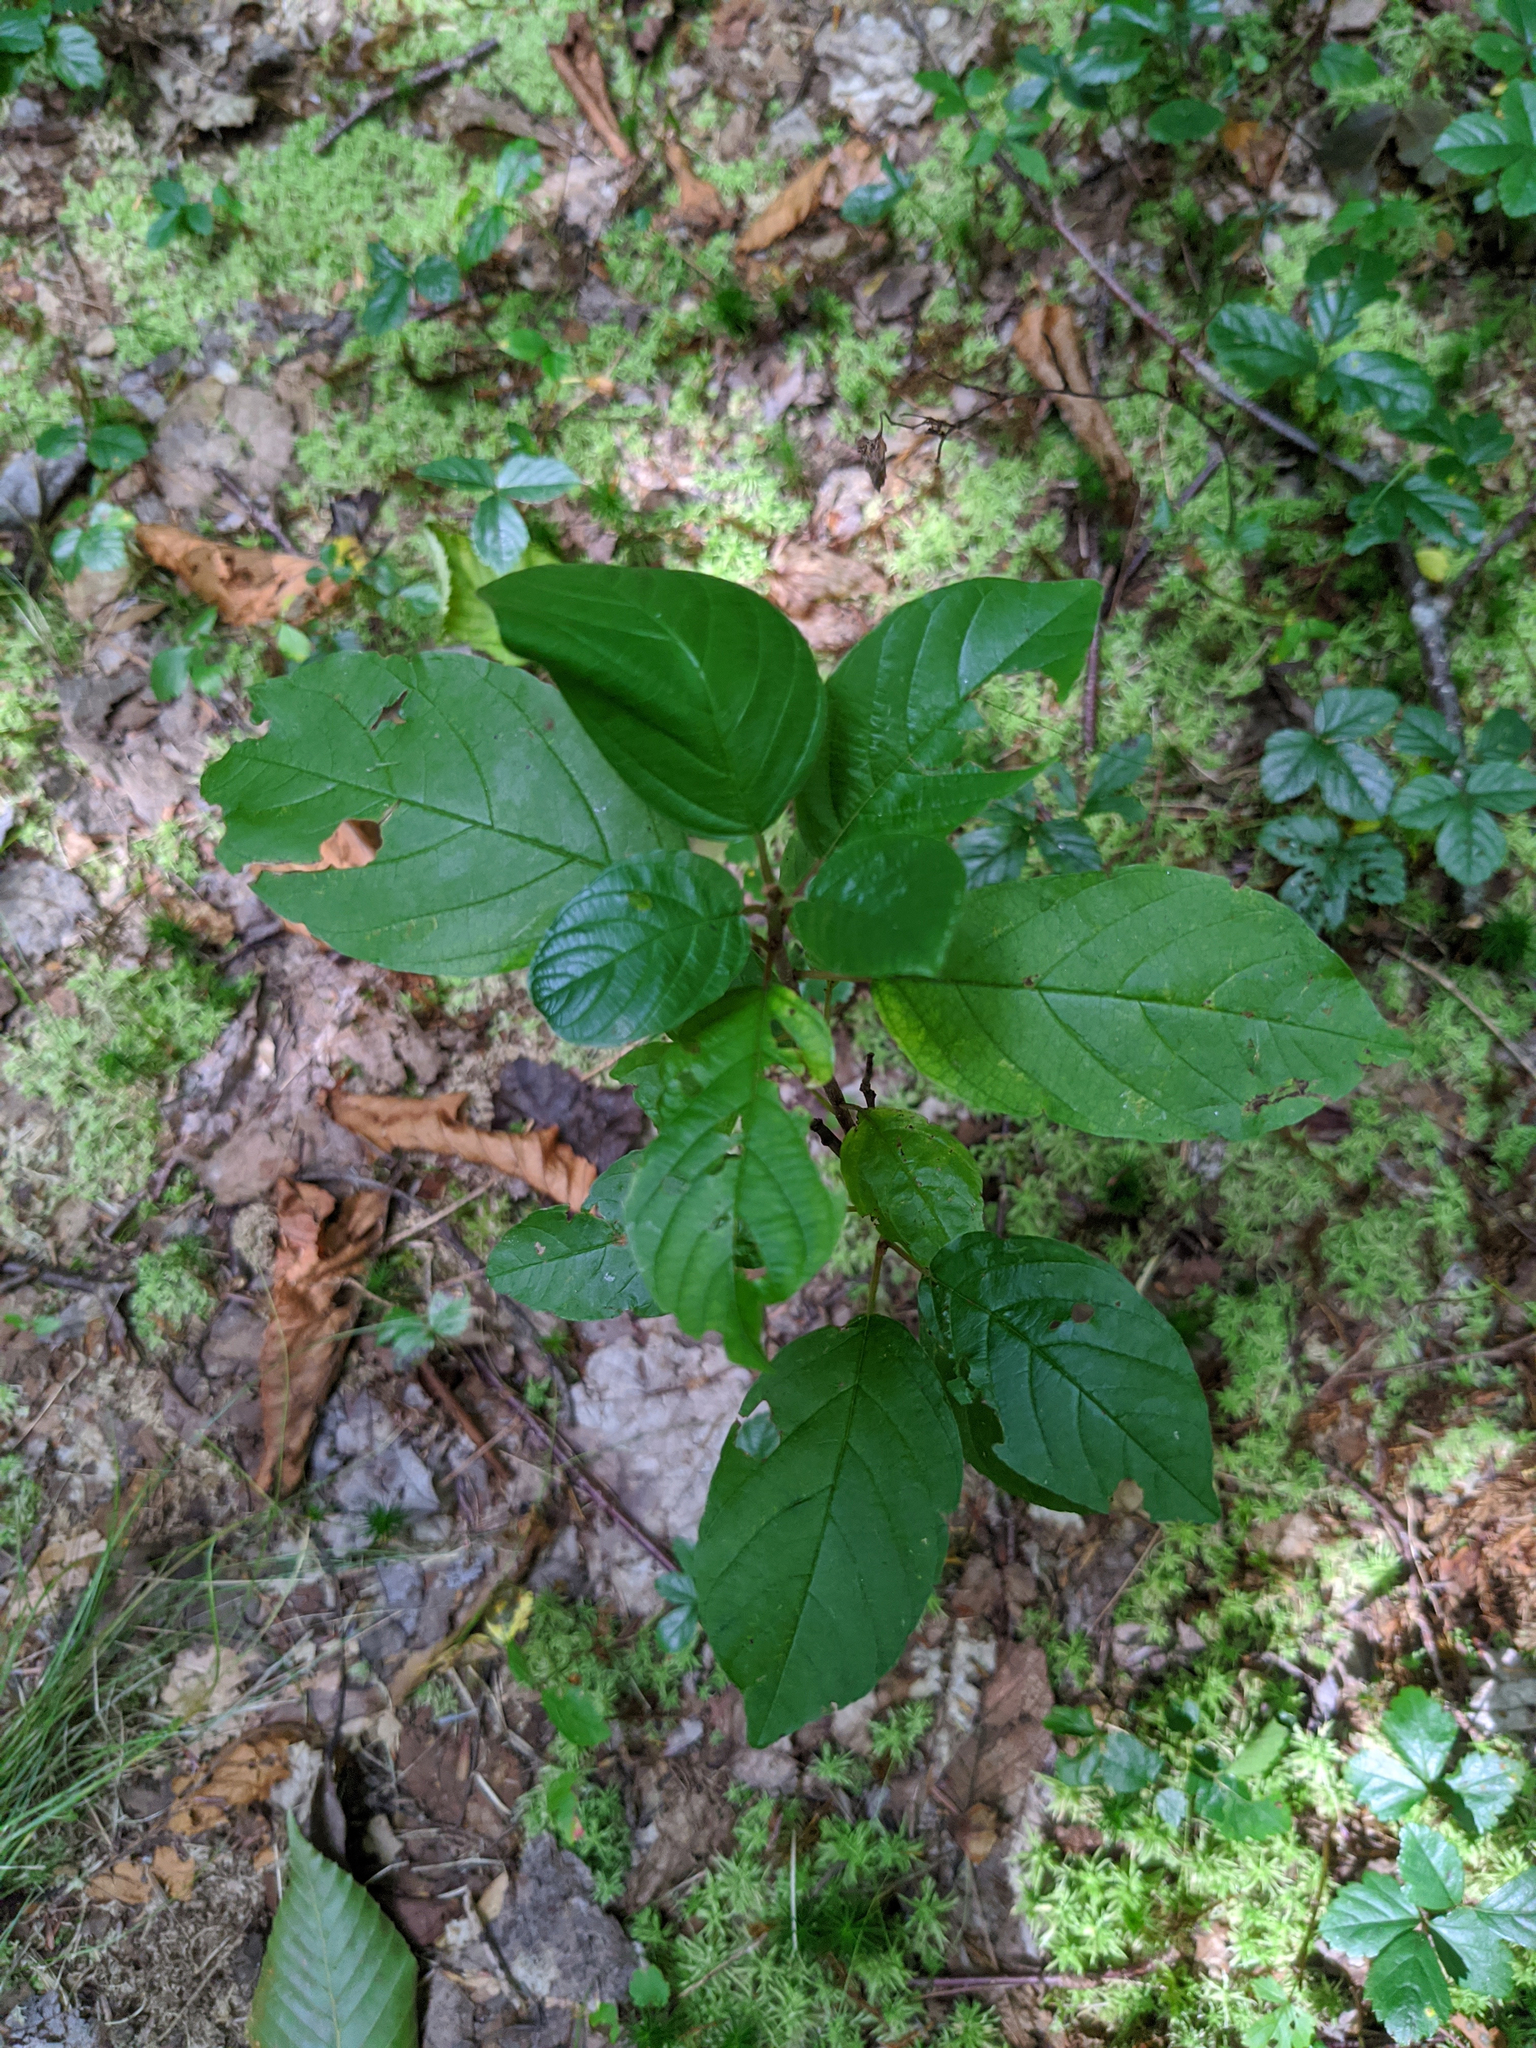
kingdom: Plantae
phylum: Tracheophyta
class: Magnoliopsida
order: Rosales
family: Rhamnaceae
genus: Frangula
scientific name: Frangula alnus
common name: Alder buckthorn
